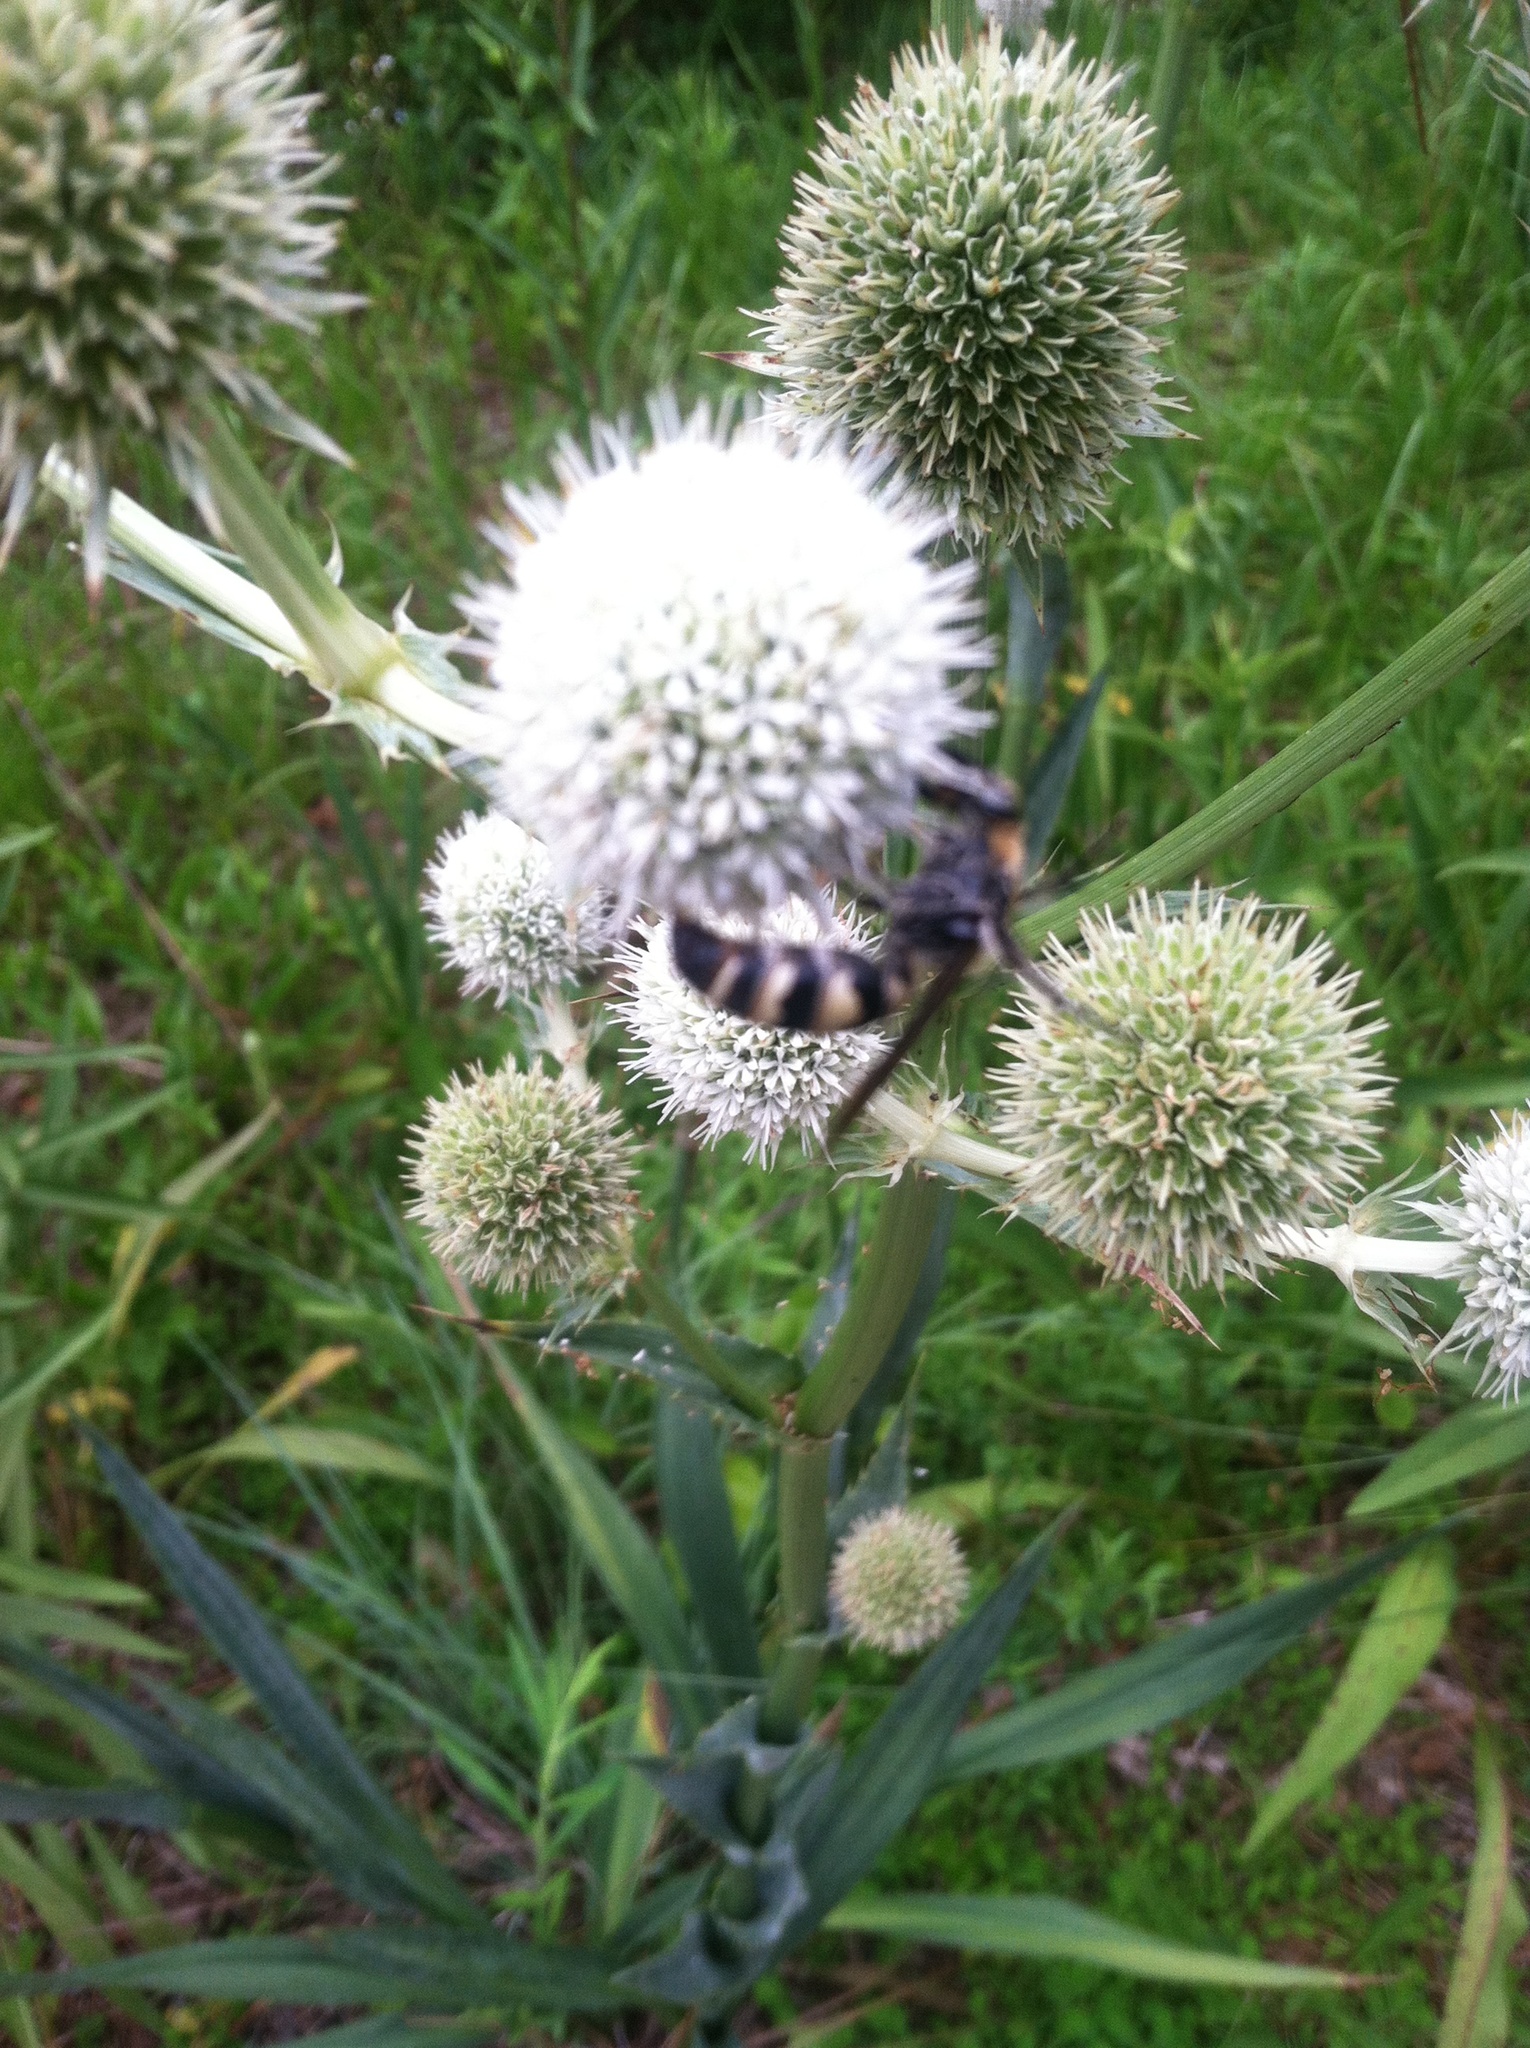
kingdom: Animalia
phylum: Arthropoda
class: Insecta
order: Hymenoptera
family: Scoliidae
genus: Dielis
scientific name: Dielis
